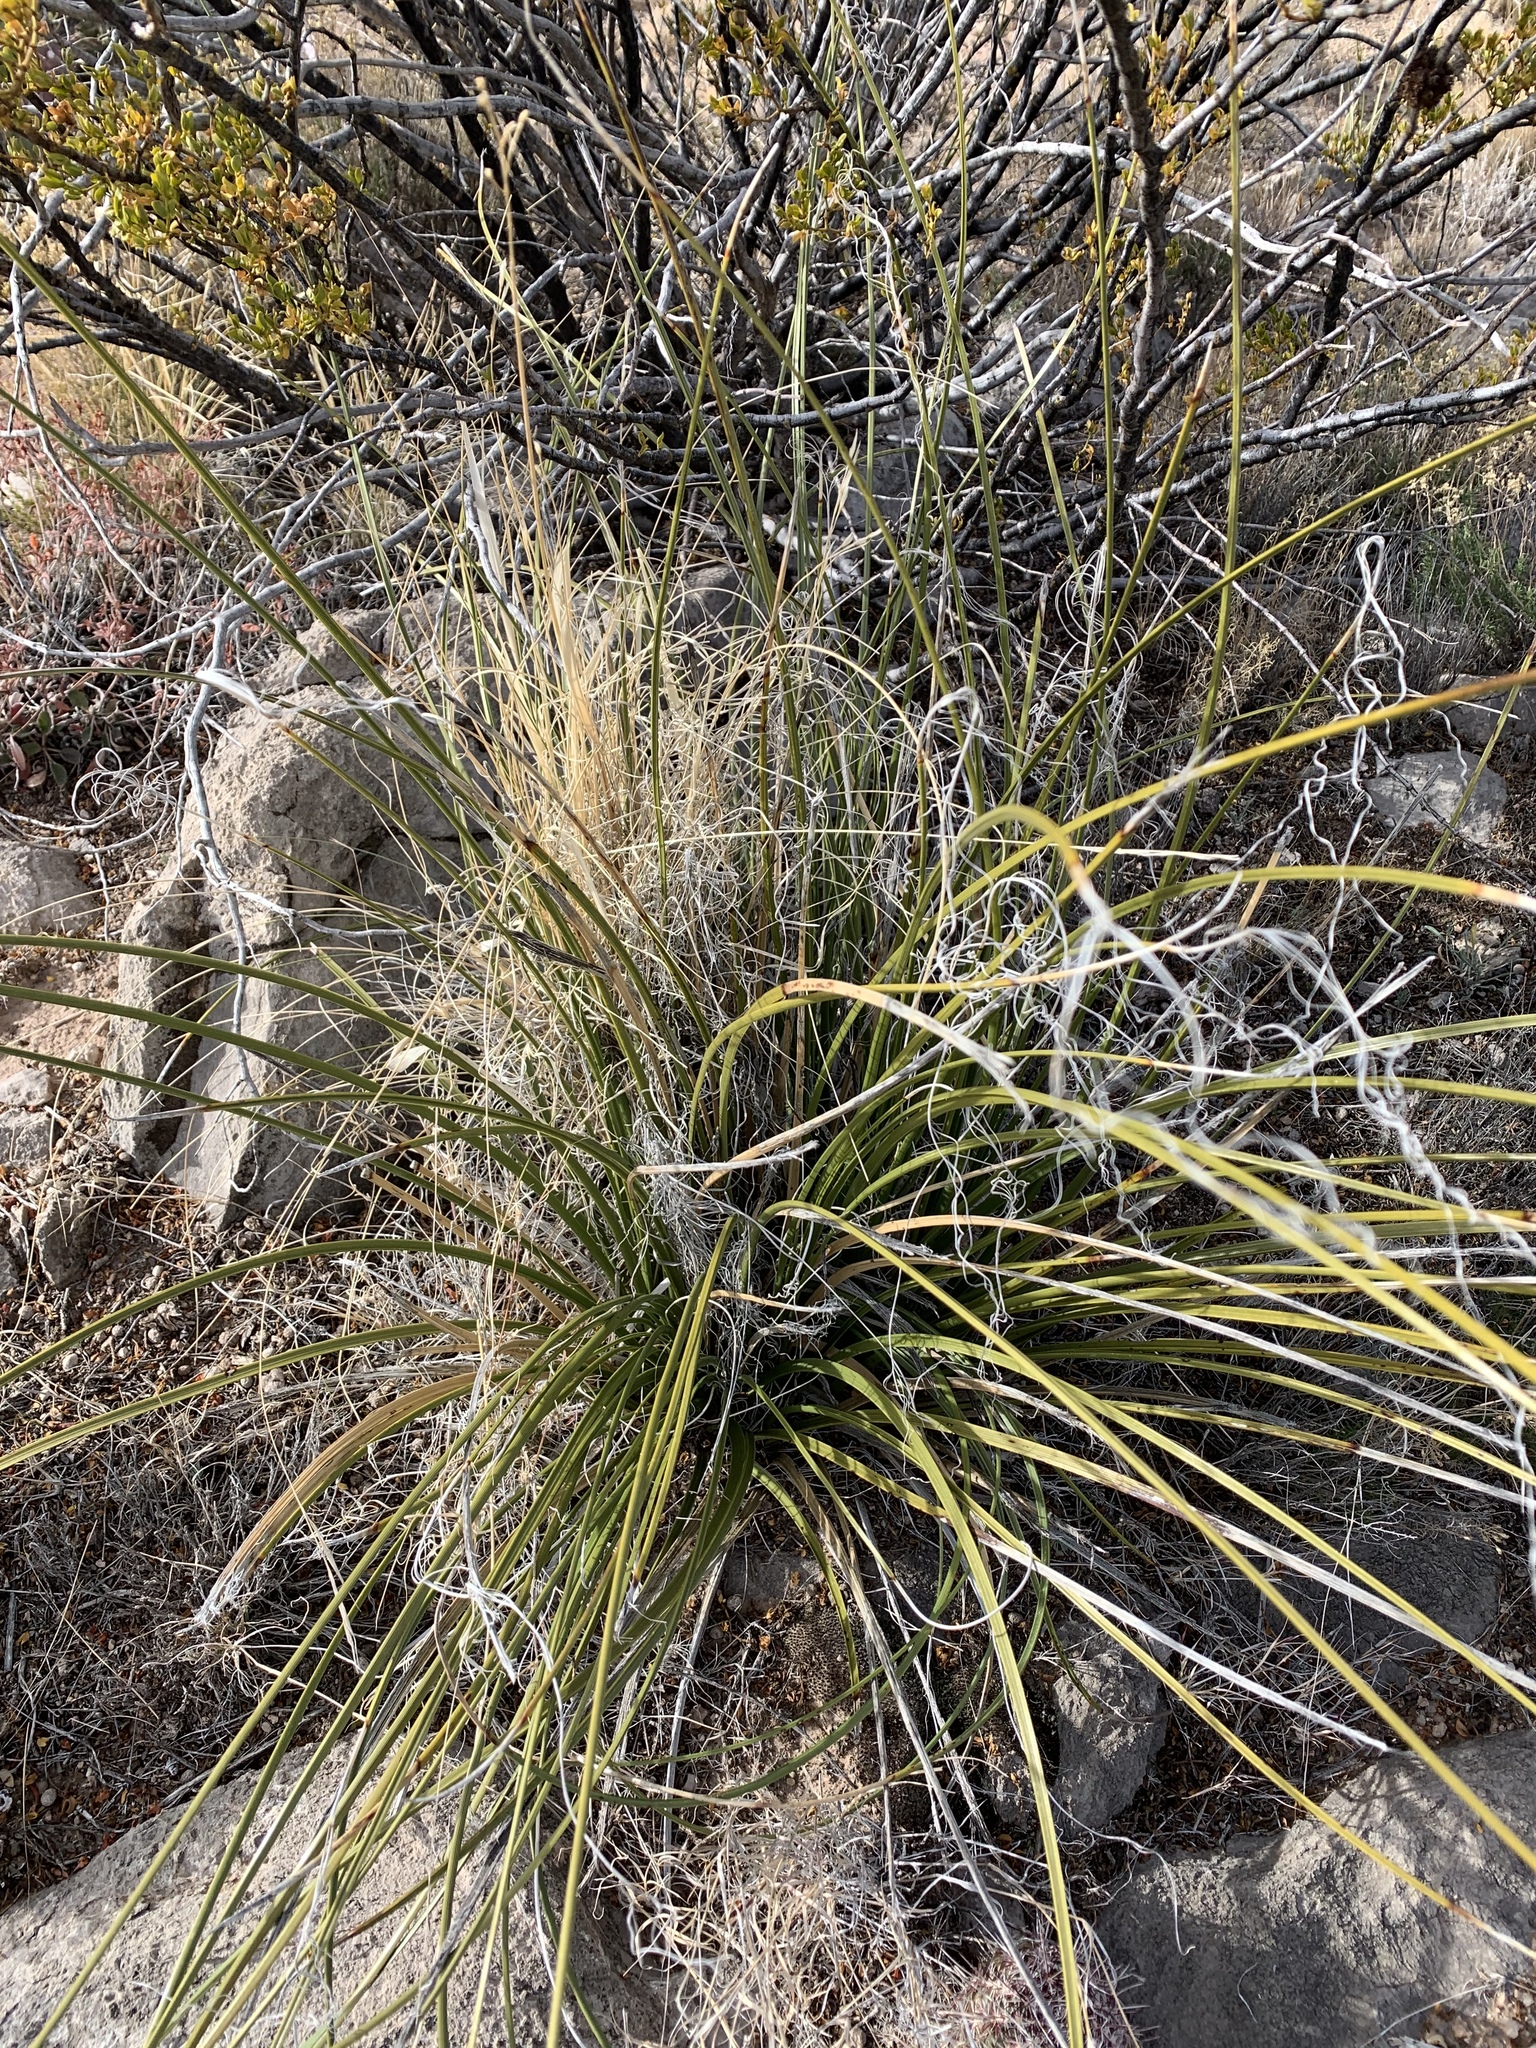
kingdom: Plantae
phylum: Tracheophyta
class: Liliopsida
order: Asparagales
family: Asparagaceae
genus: Nolina
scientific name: Nolina microcarpa
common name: Bear-grass
